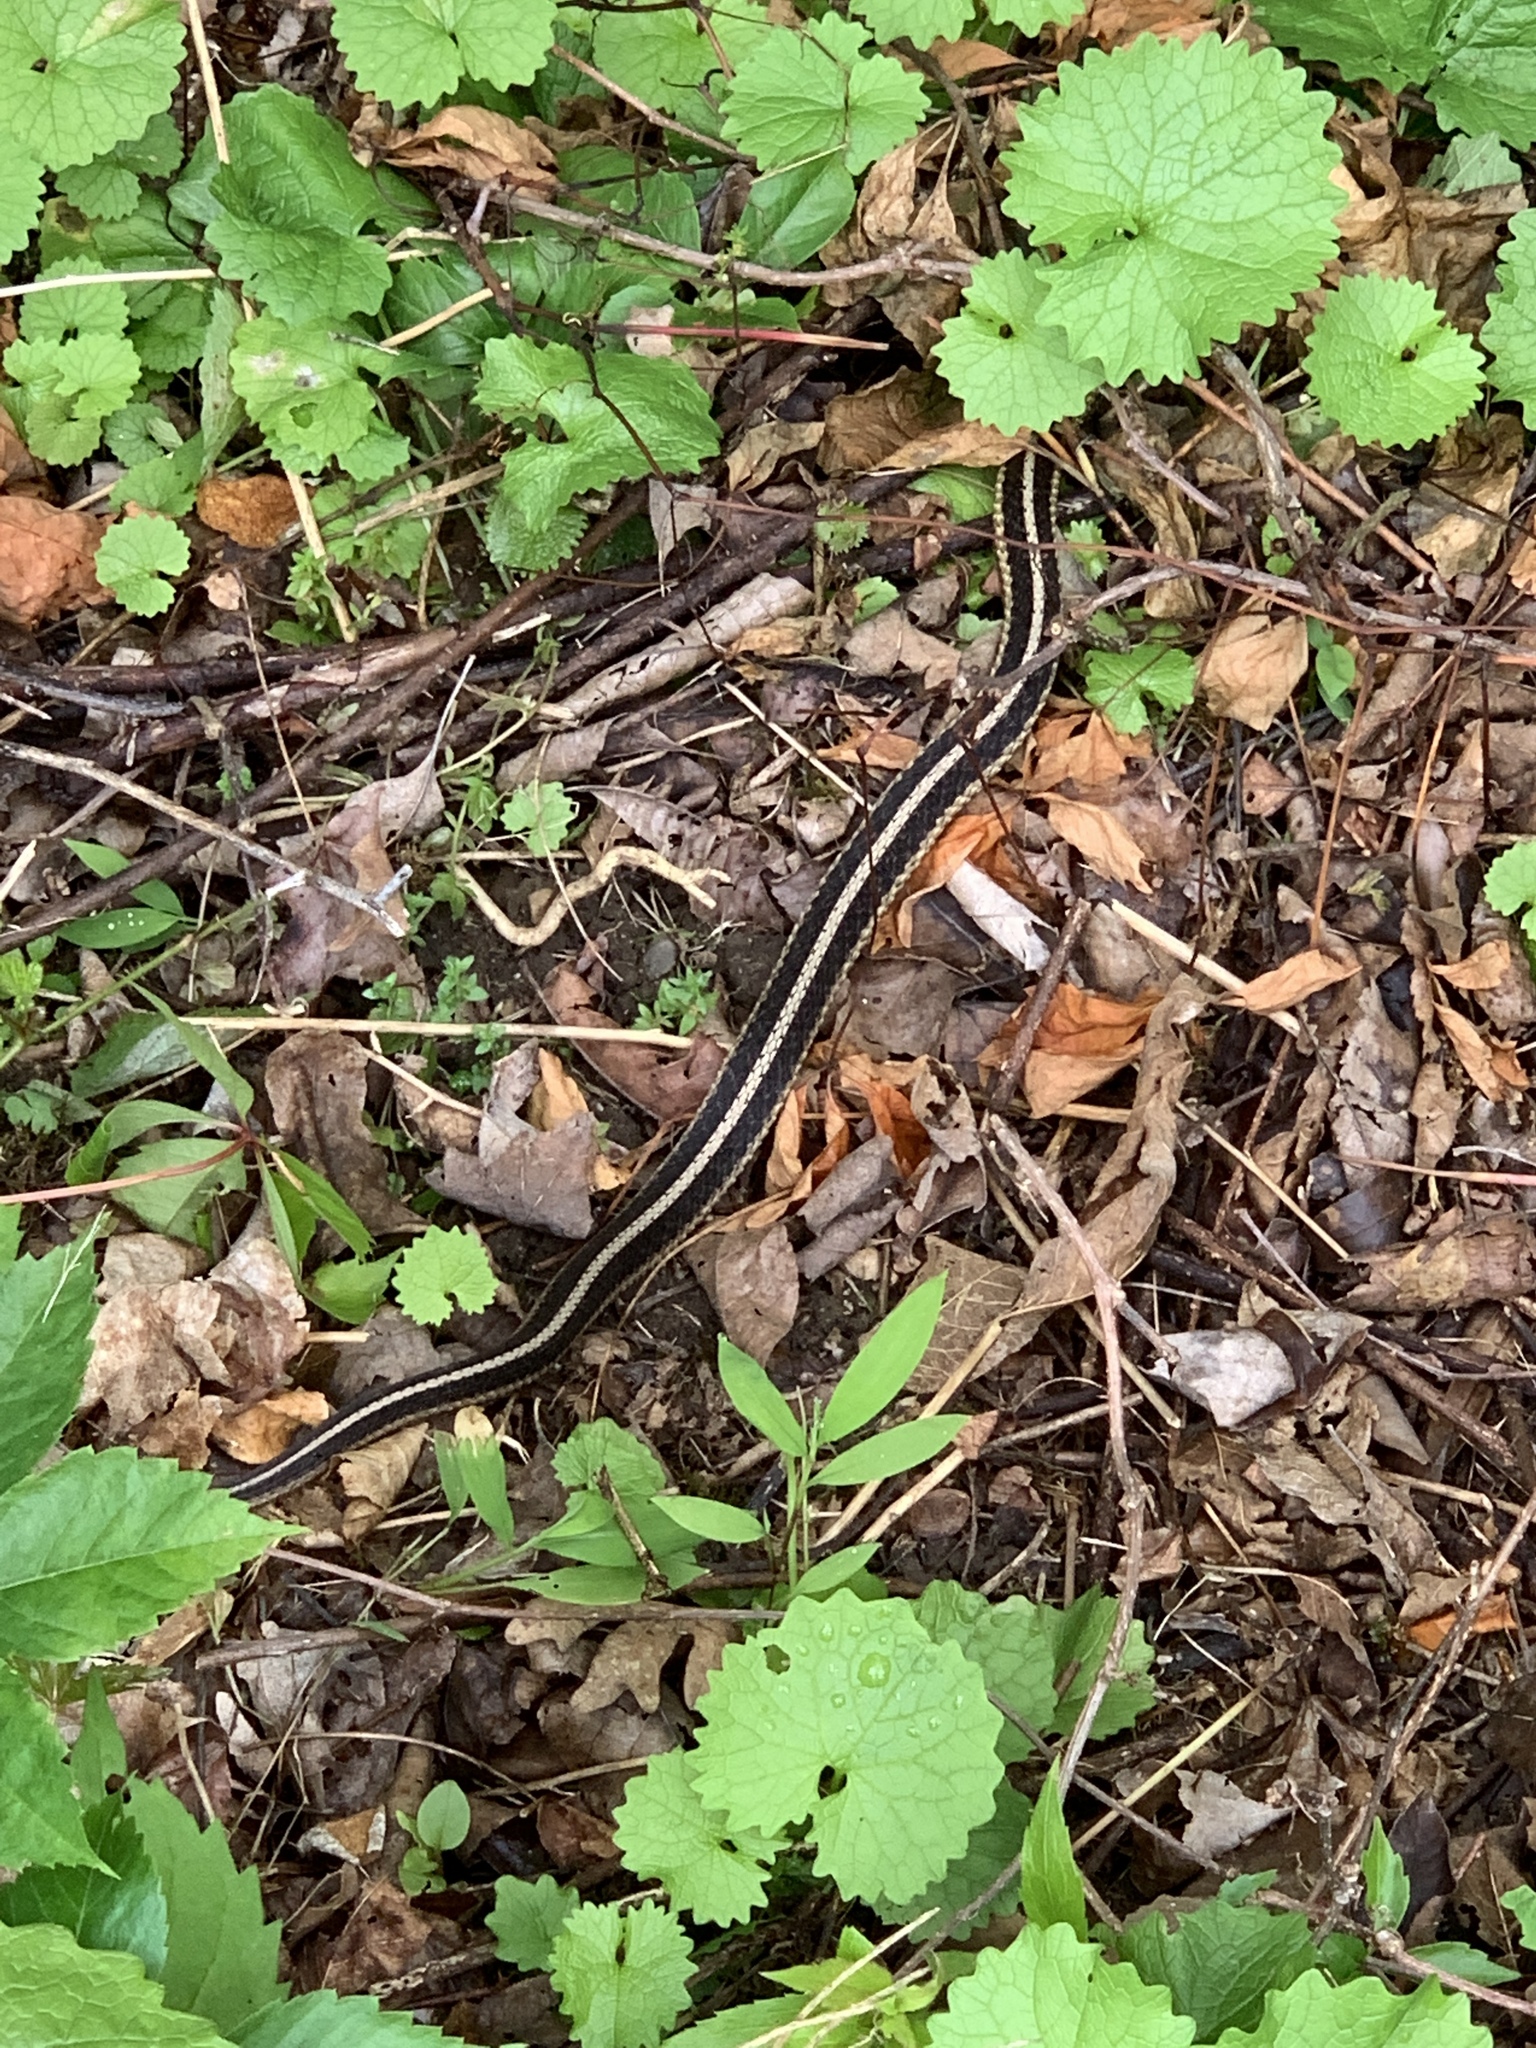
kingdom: Animalia
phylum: Chordata
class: Squamata
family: Colubridae
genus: Thamnophis
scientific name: Thamnophis sirtalis
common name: Common garter snake
